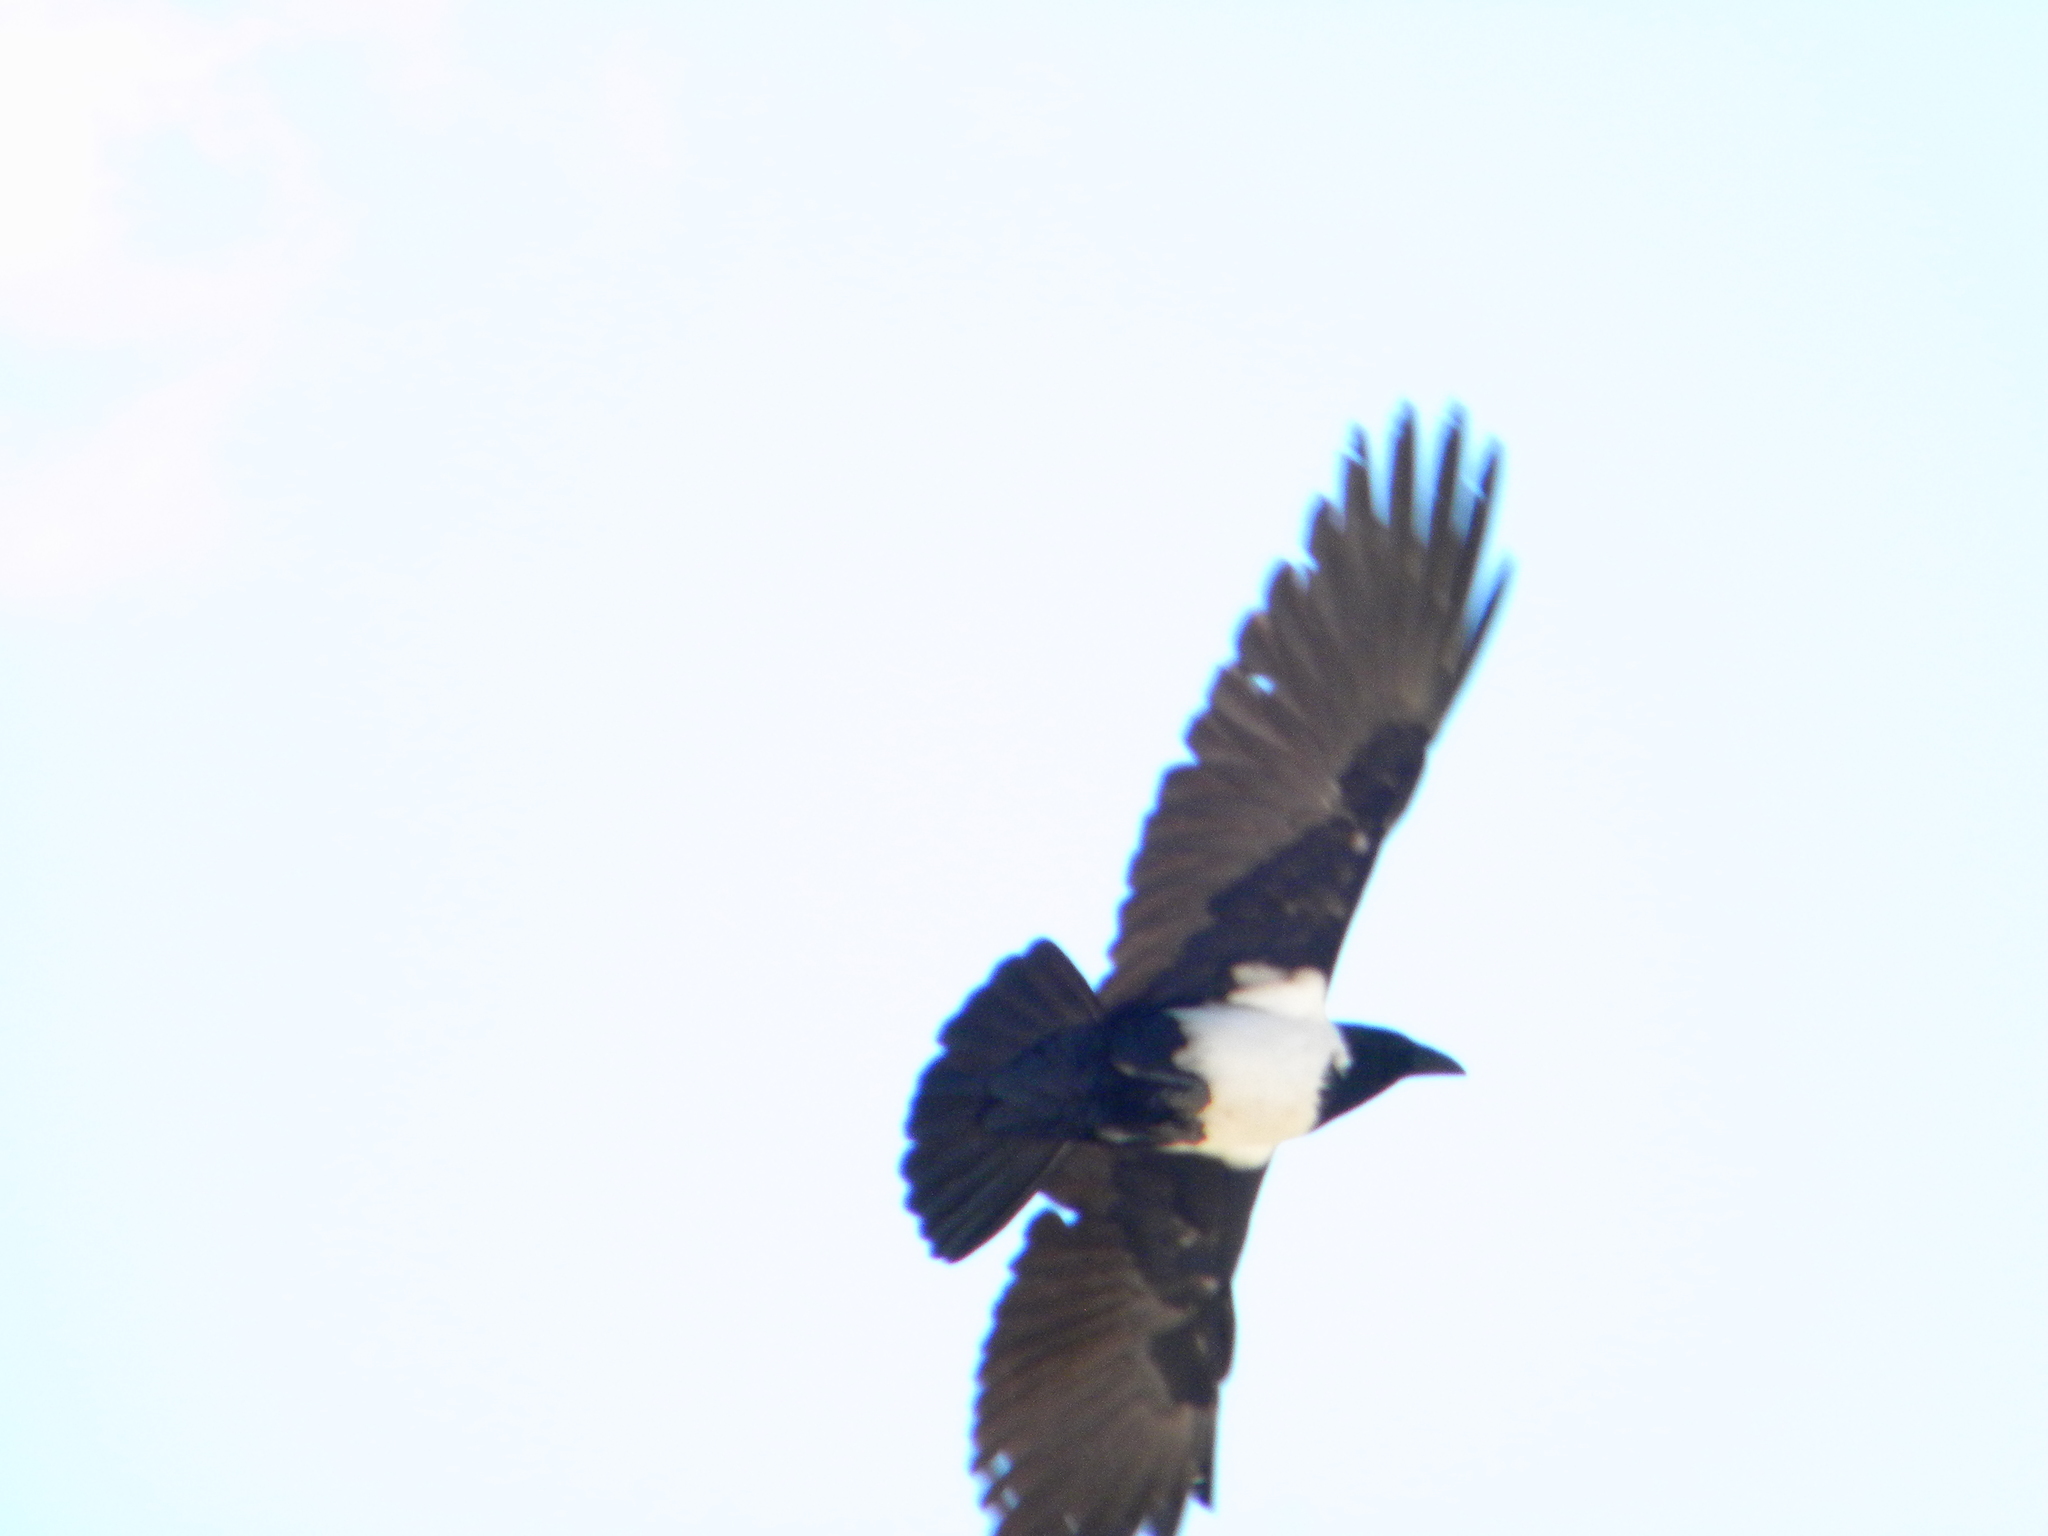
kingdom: Animalia
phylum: Chordata
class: Aves
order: Passeriformes
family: Corvidae
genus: Corvus
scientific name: Corvus albus
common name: Pied crow
